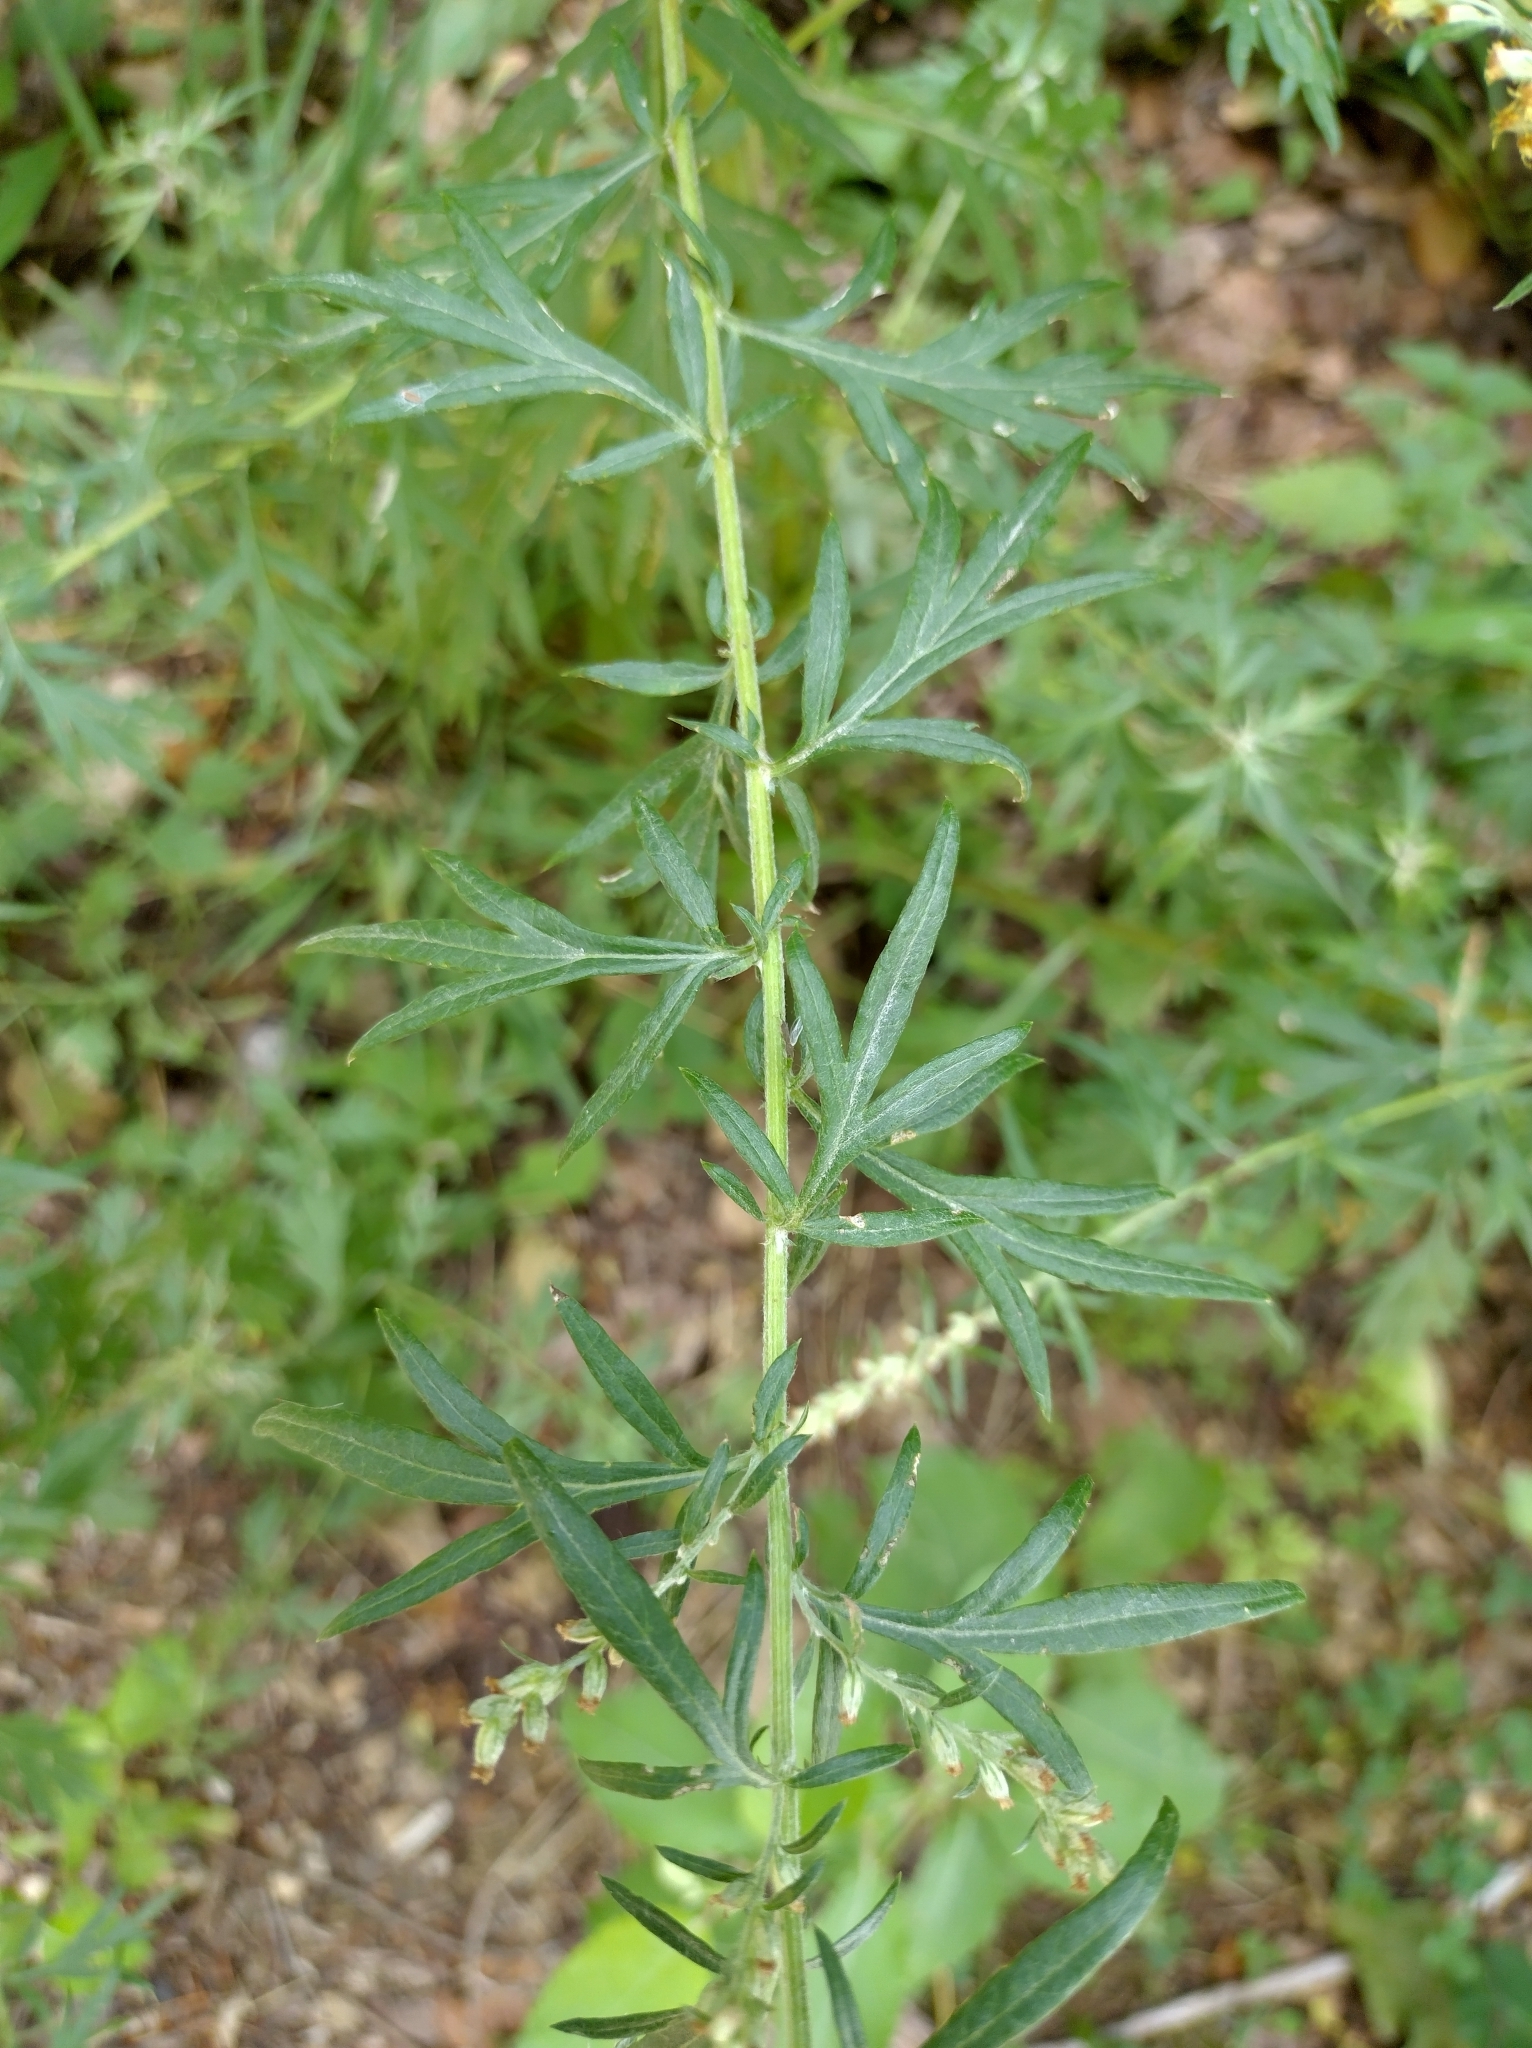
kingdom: Plantae
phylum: Tracheophyta
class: Magnoliopsida
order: Asterales
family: Asteraceae
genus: Artemisia
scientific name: Artemisia vulgaris
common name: Mugwort
